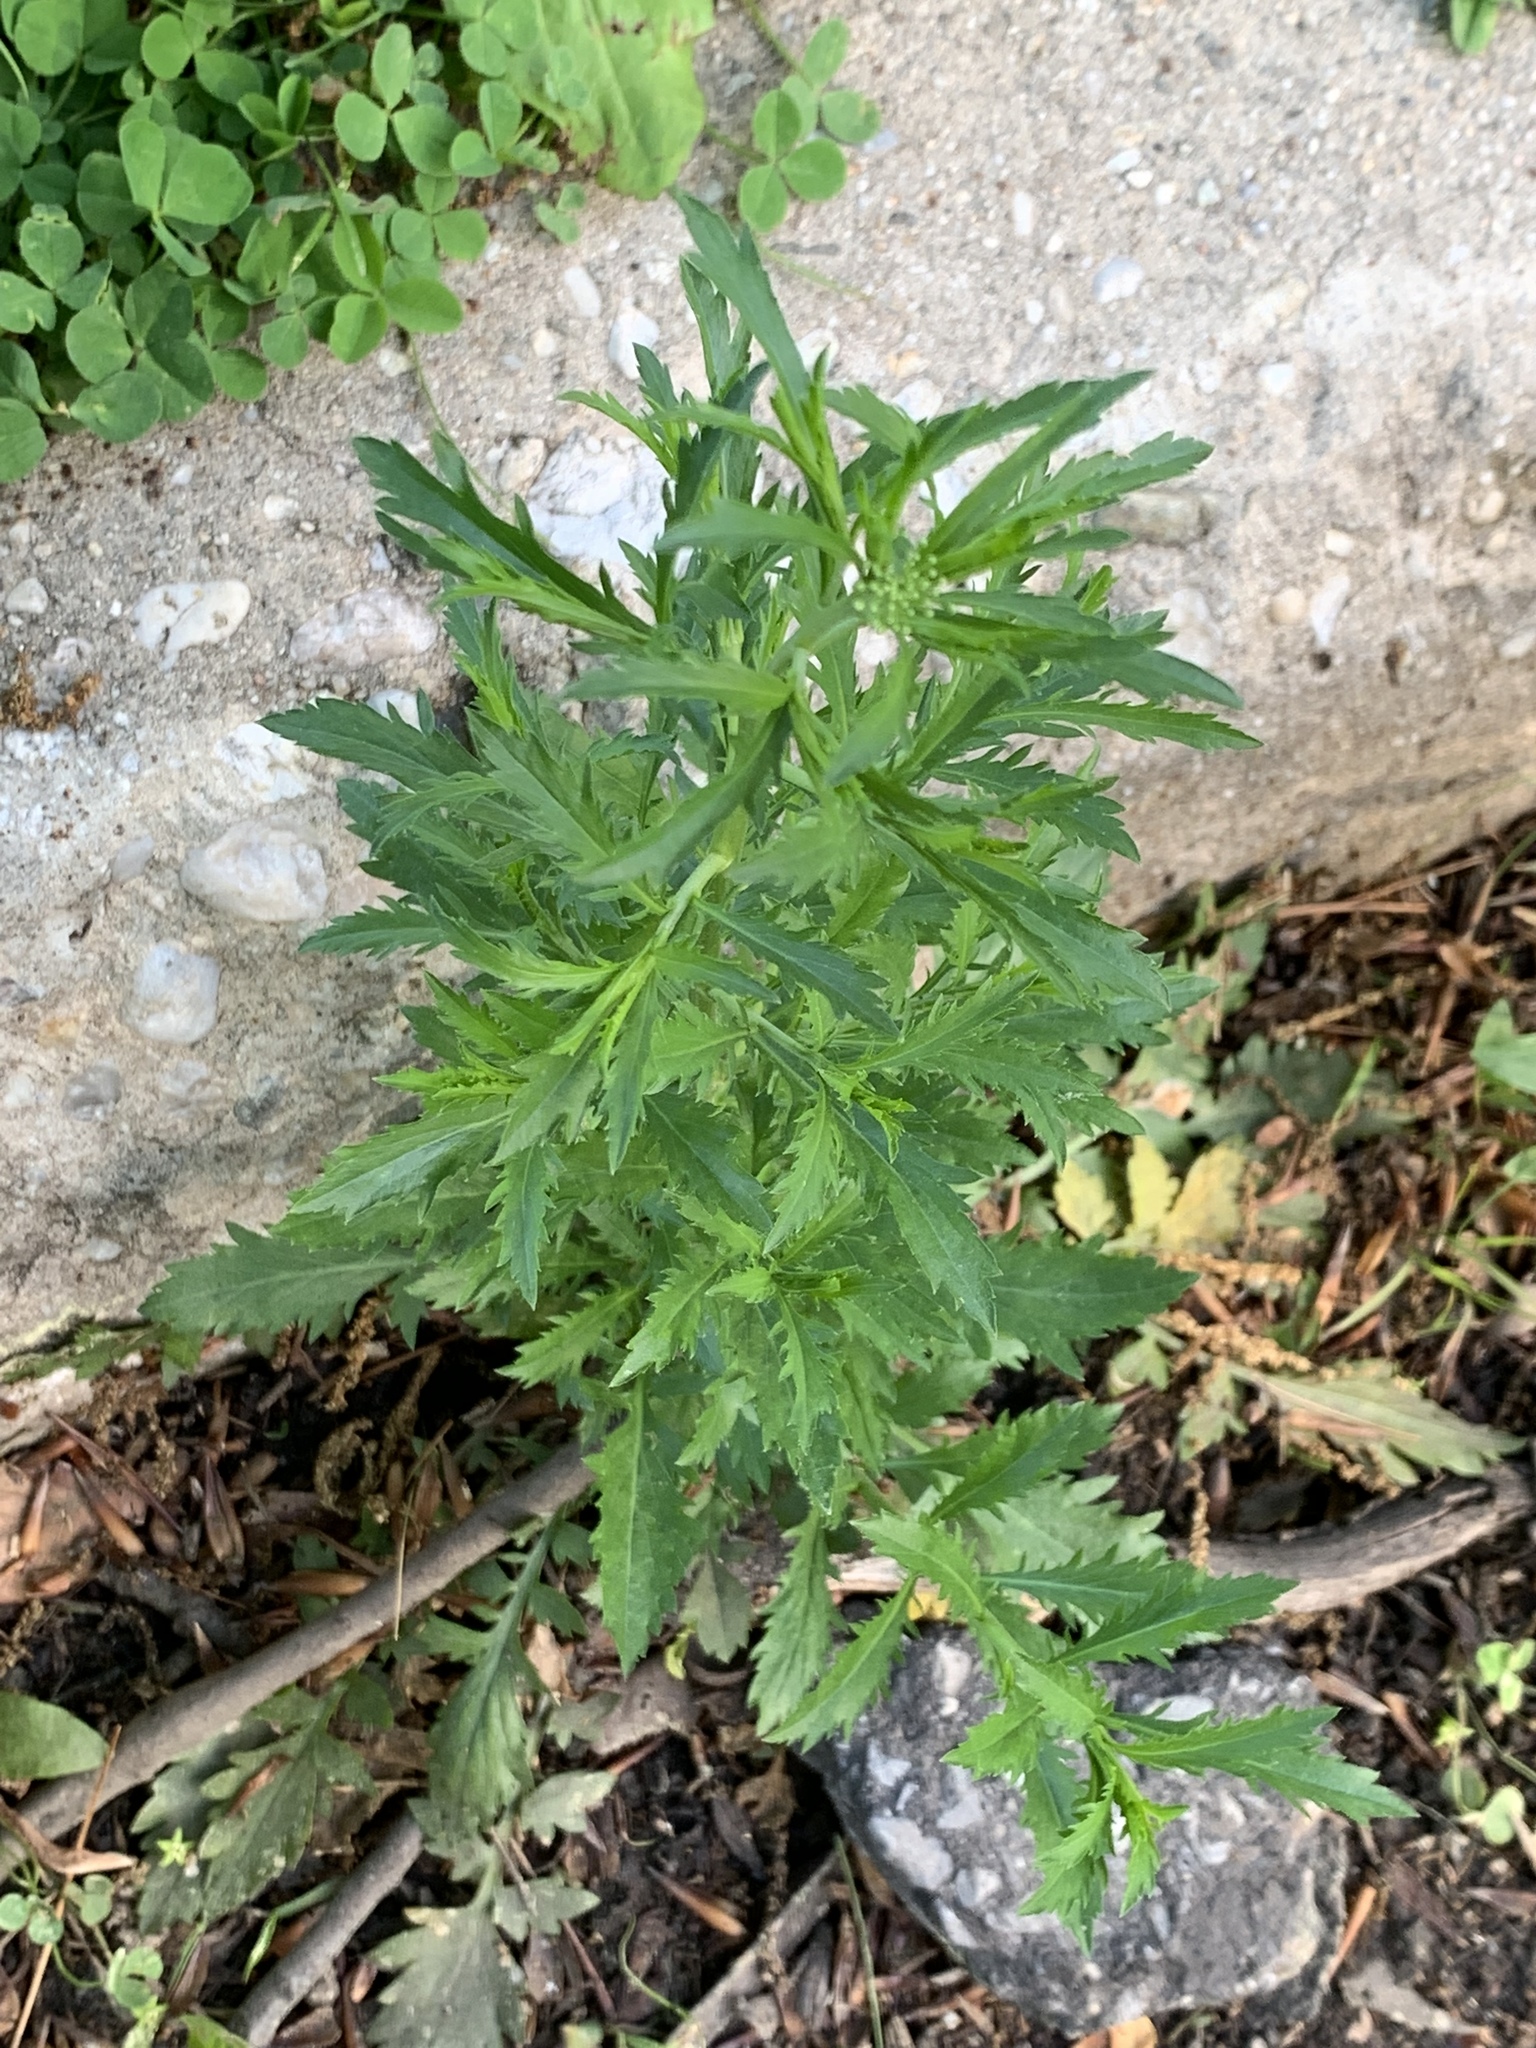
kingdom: Plantae
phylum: Tracheophyta
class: Magnoliopsida
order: Brassicales
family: Brassicaceae
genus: Lepidium
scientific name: Lepidium virginicum
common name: Least pepperwort
